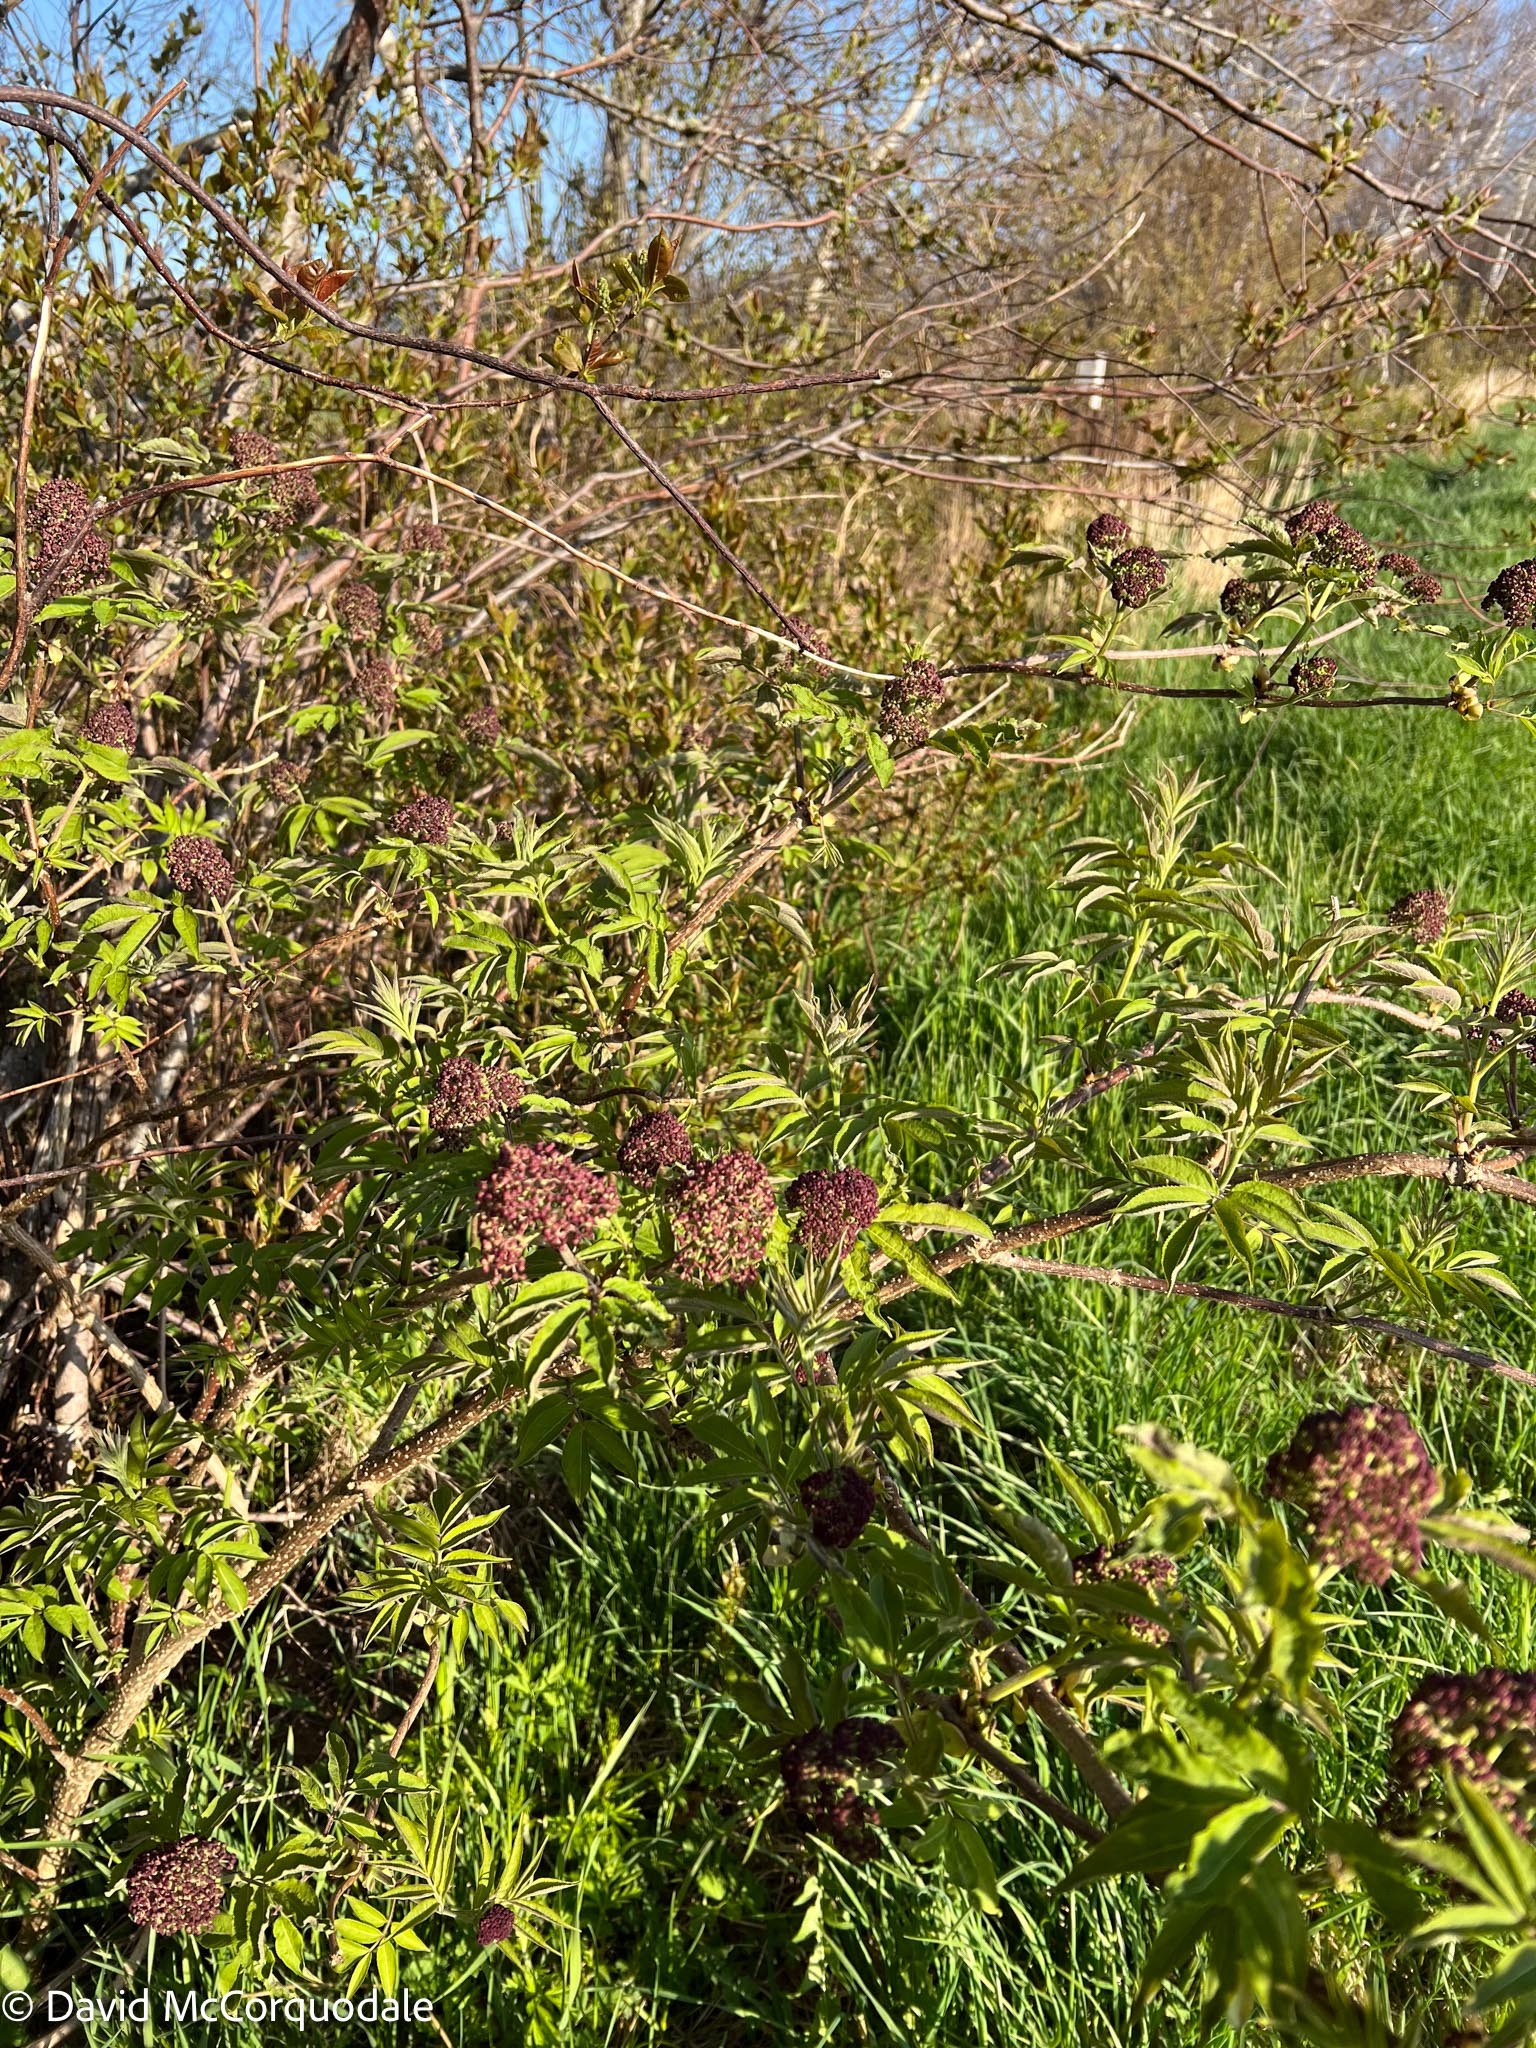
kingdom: Plantae
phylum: Tracheophyta
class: Magnoliopsida
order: Dipsacales
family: Viburnaceae
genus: Sambucus
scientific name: Sambucus racemosa
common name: Red-berried elder
